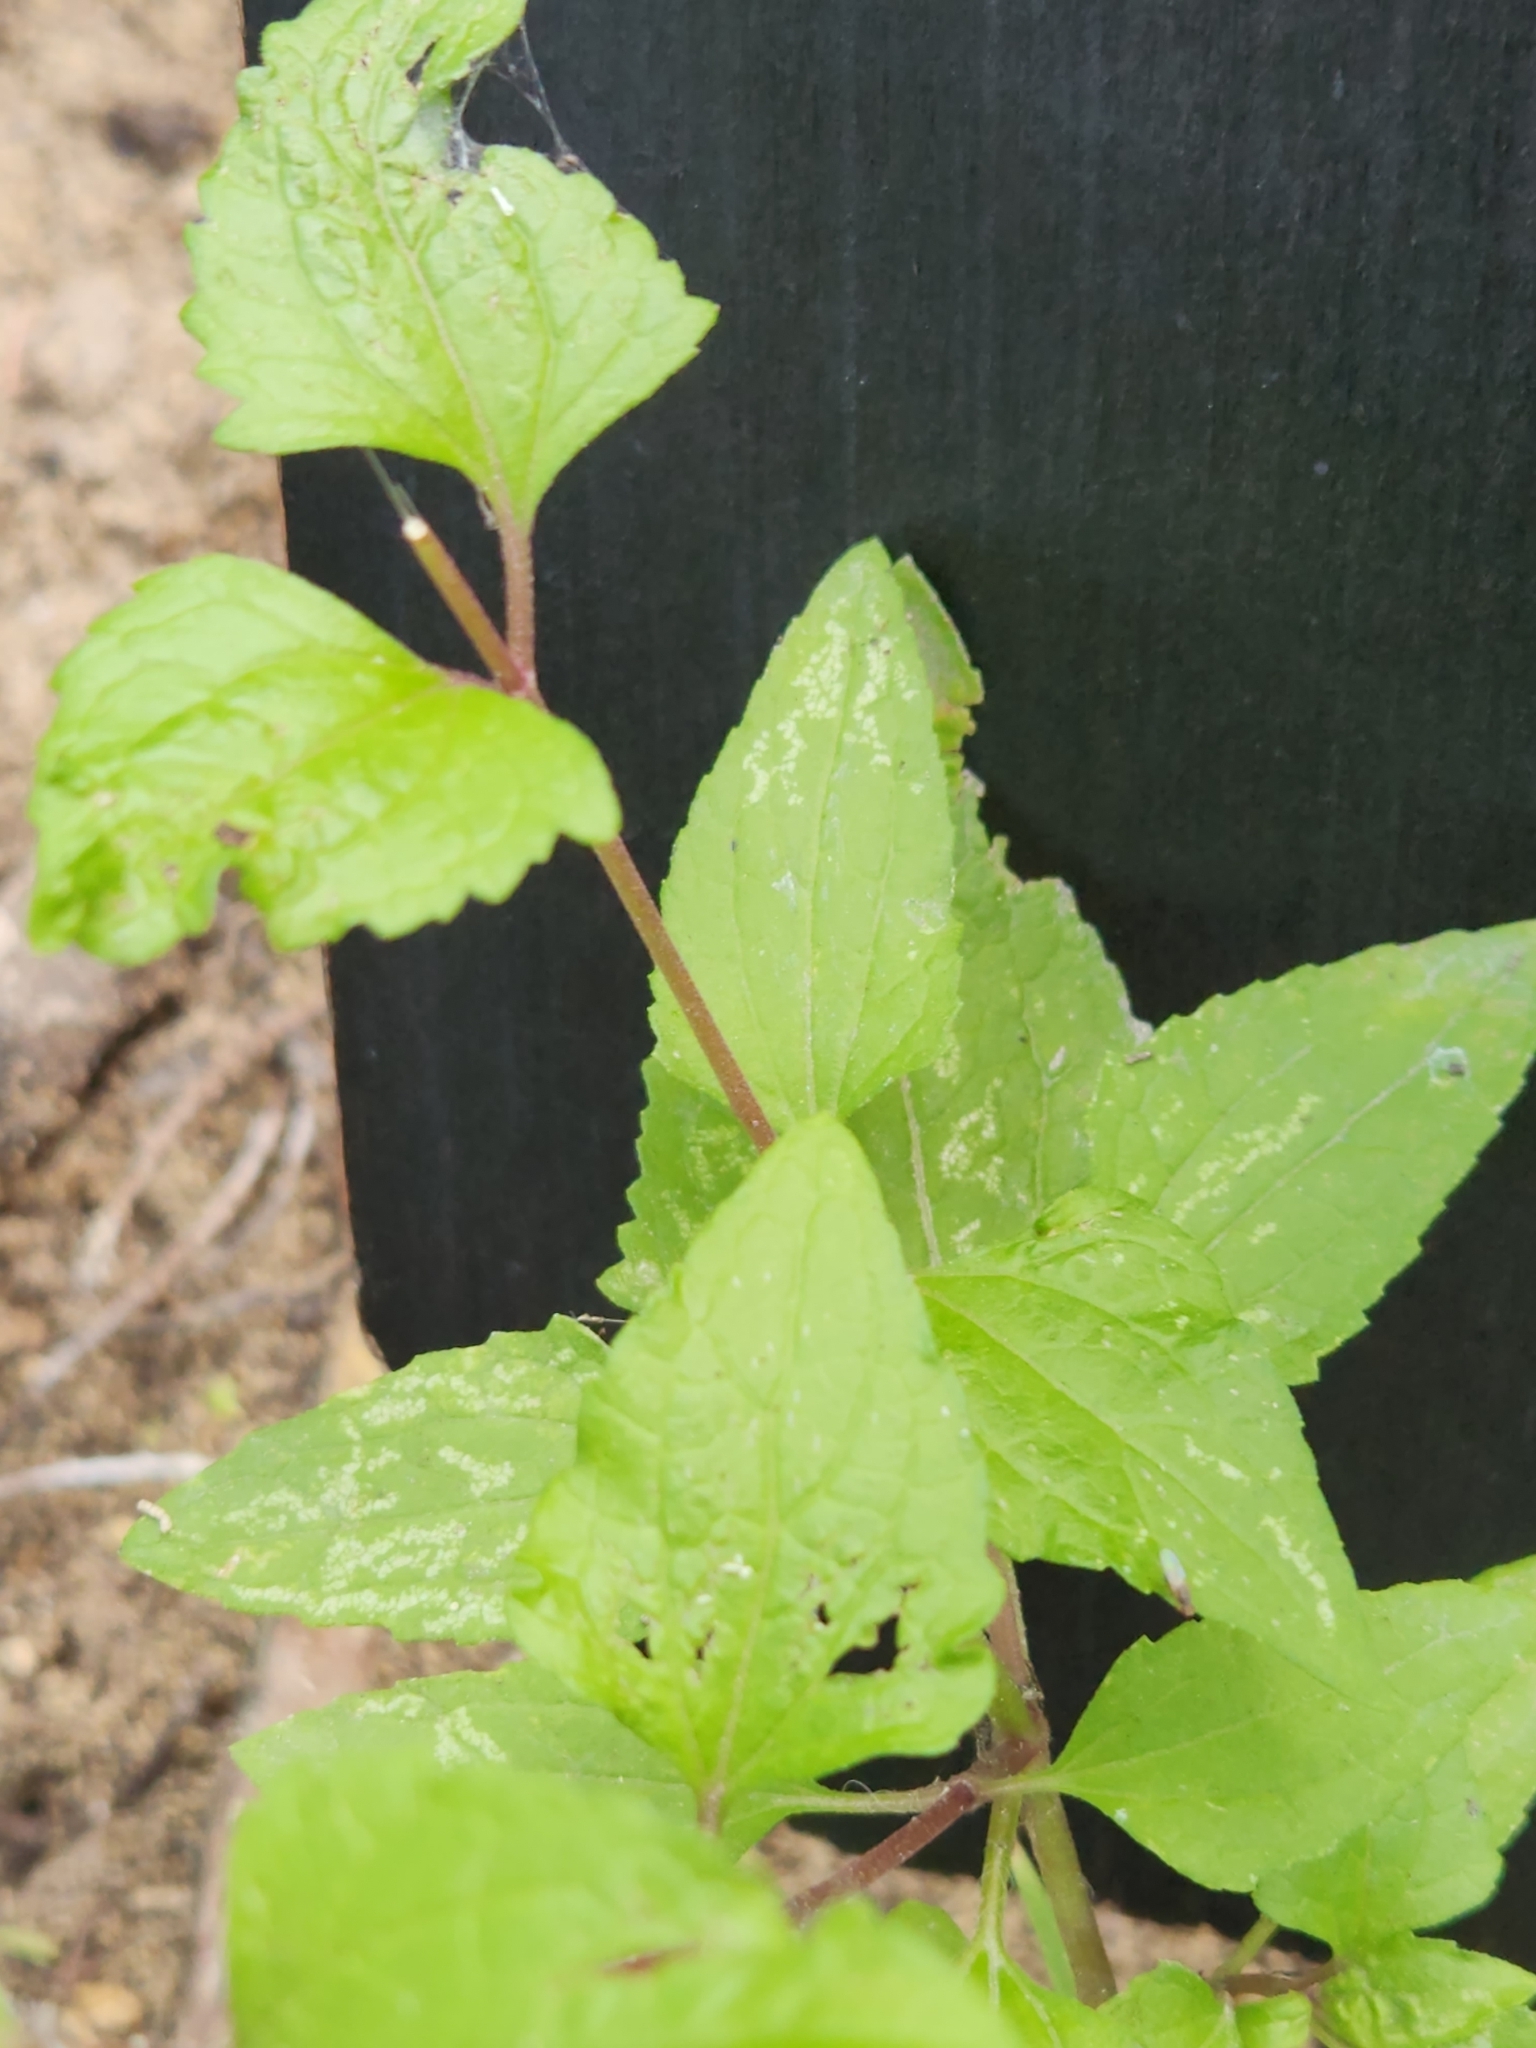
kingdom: Plantae
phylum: Tracheophyta
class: Magnoliopsida
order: Asterales
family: Asteraceae
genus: Conoclinium
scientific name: Conoclinium coelestinum
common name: Blue mistflower
